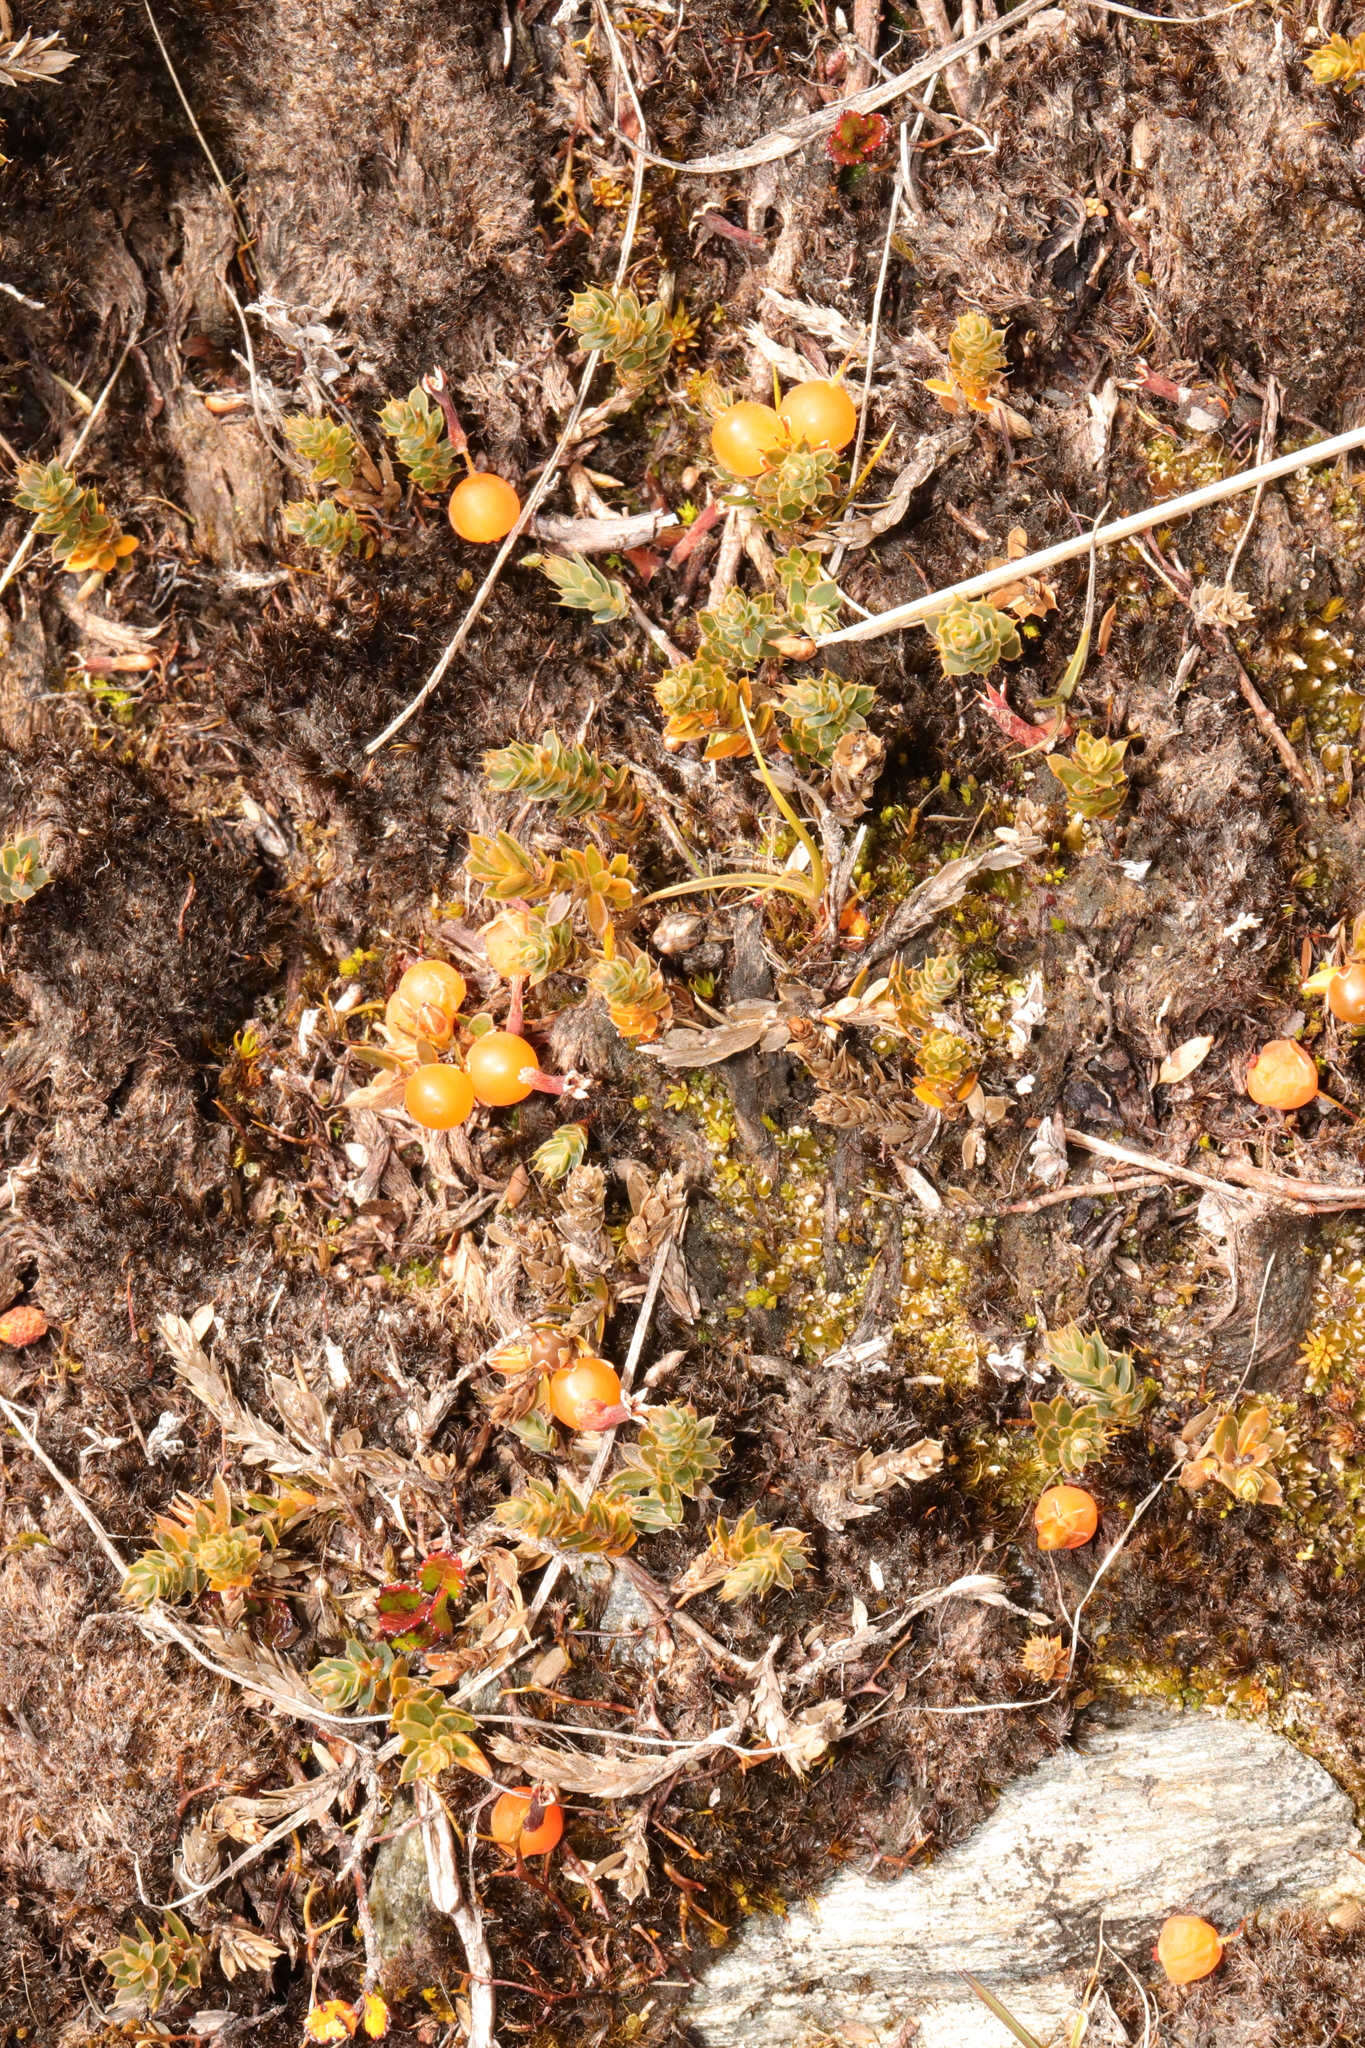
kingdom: Plantae
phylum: Tracheophyta
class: Magnoliopsida
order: Ericales
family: Ericaceae
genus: Styphelia
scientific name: Styphelia nesophila
